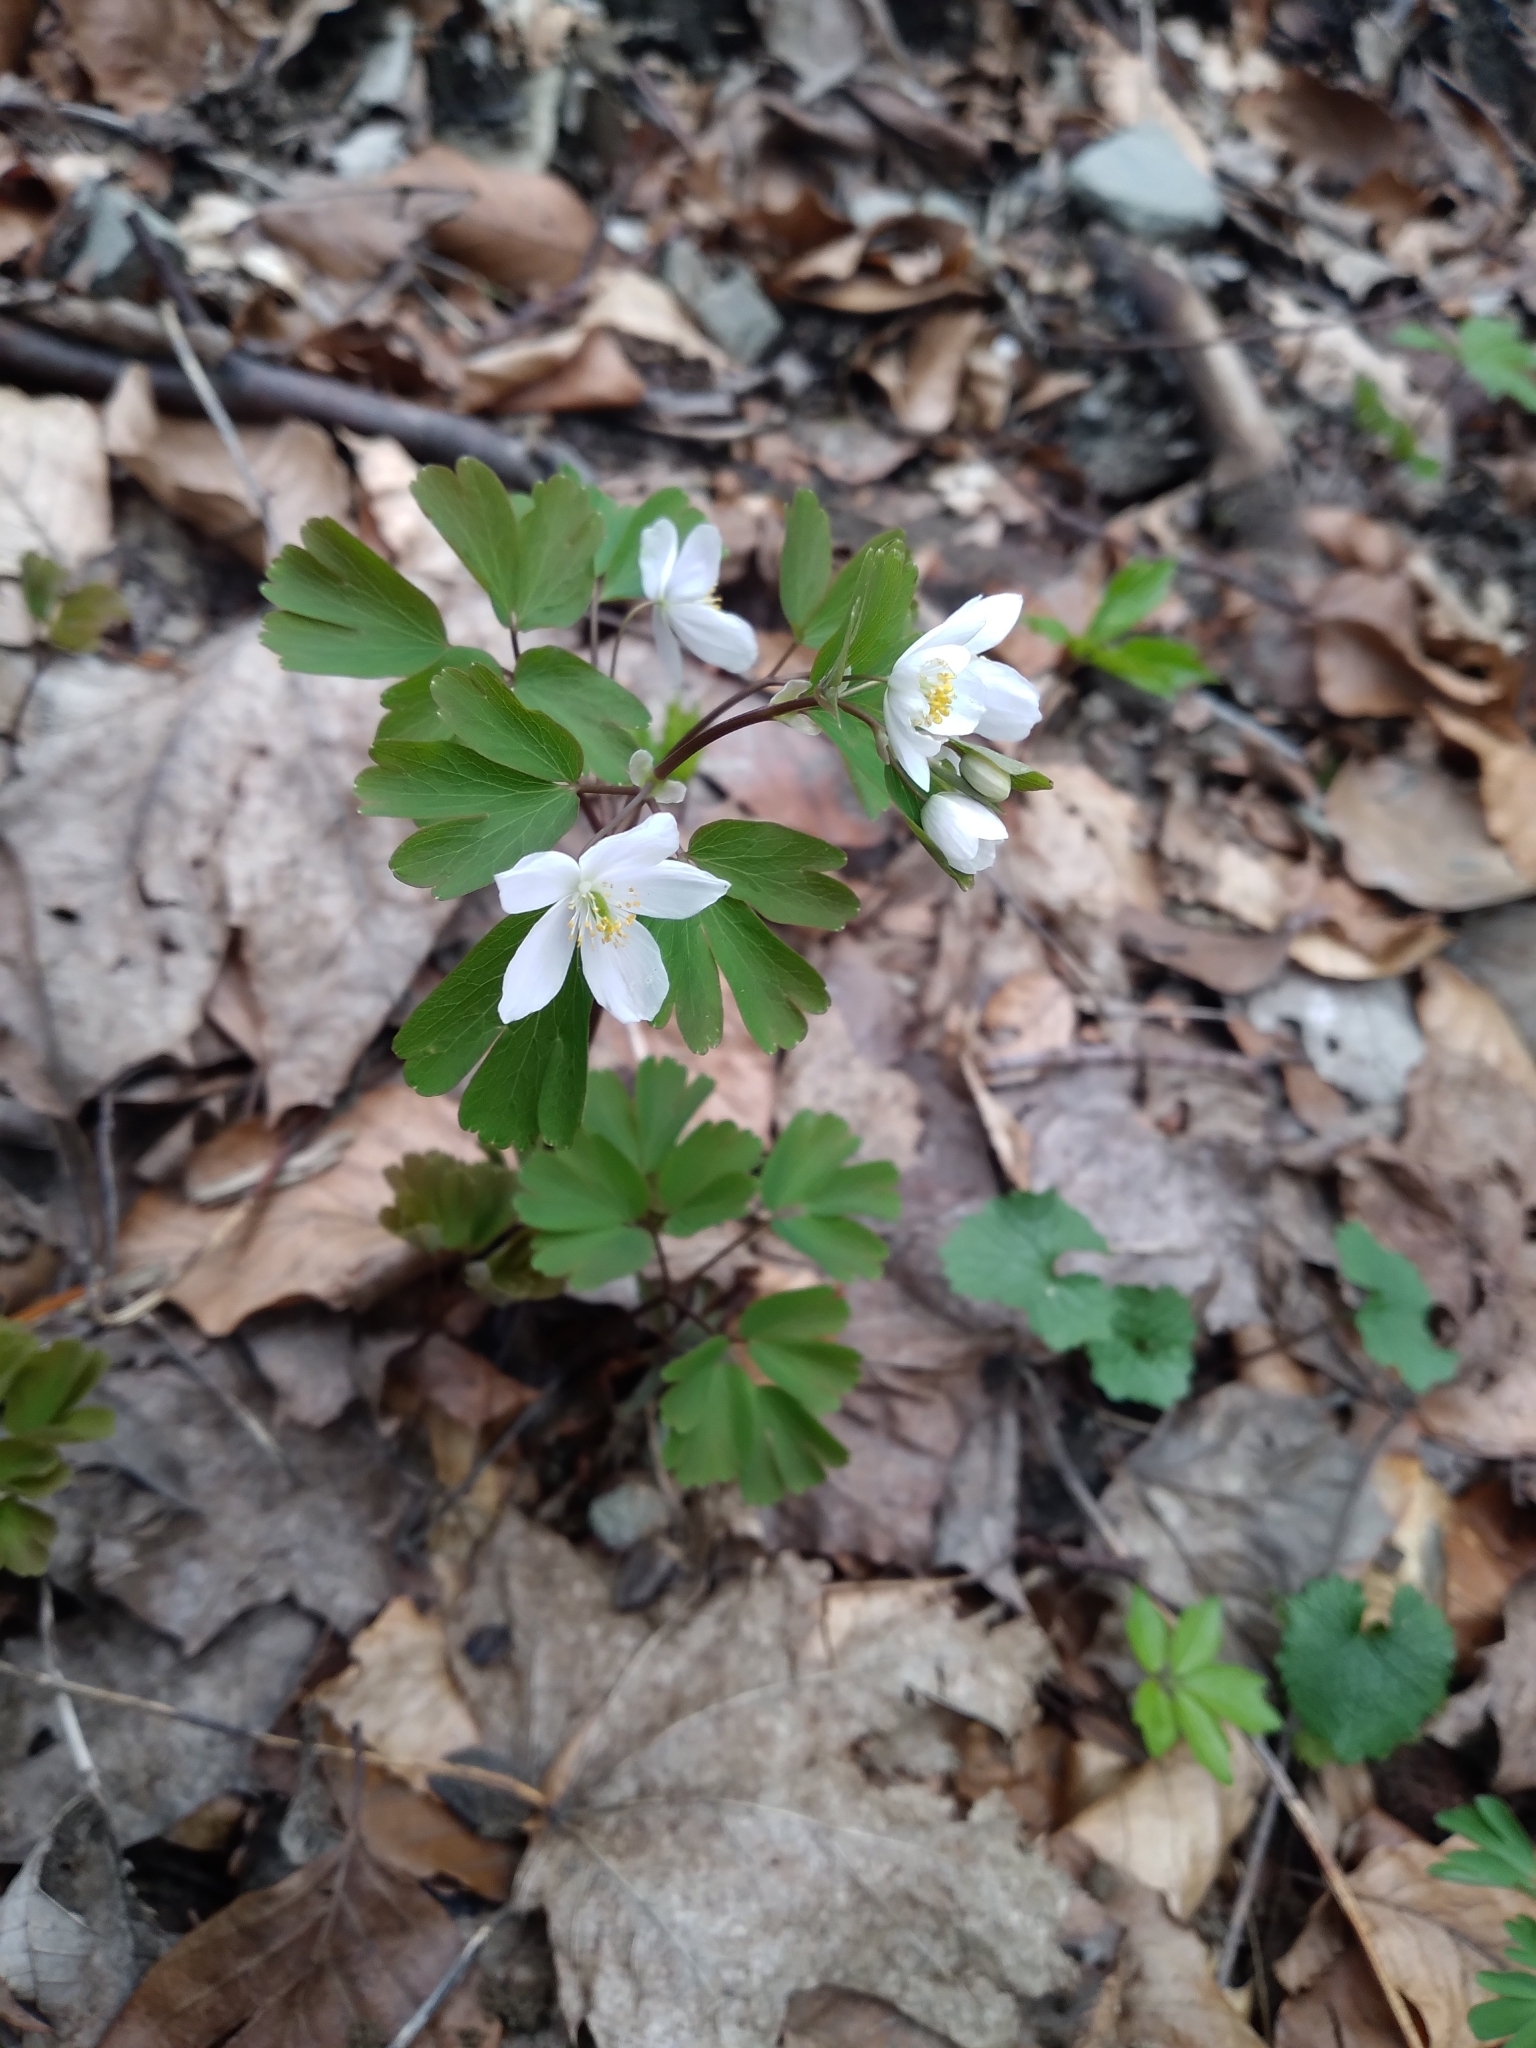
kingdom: Plantae
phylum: Tracheophyta
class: Magnoliopsida
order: Ranunculales
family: Ranunculaceae
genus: Isopyrum
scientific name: Isopyrum thalictroides
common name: Isopyrum
